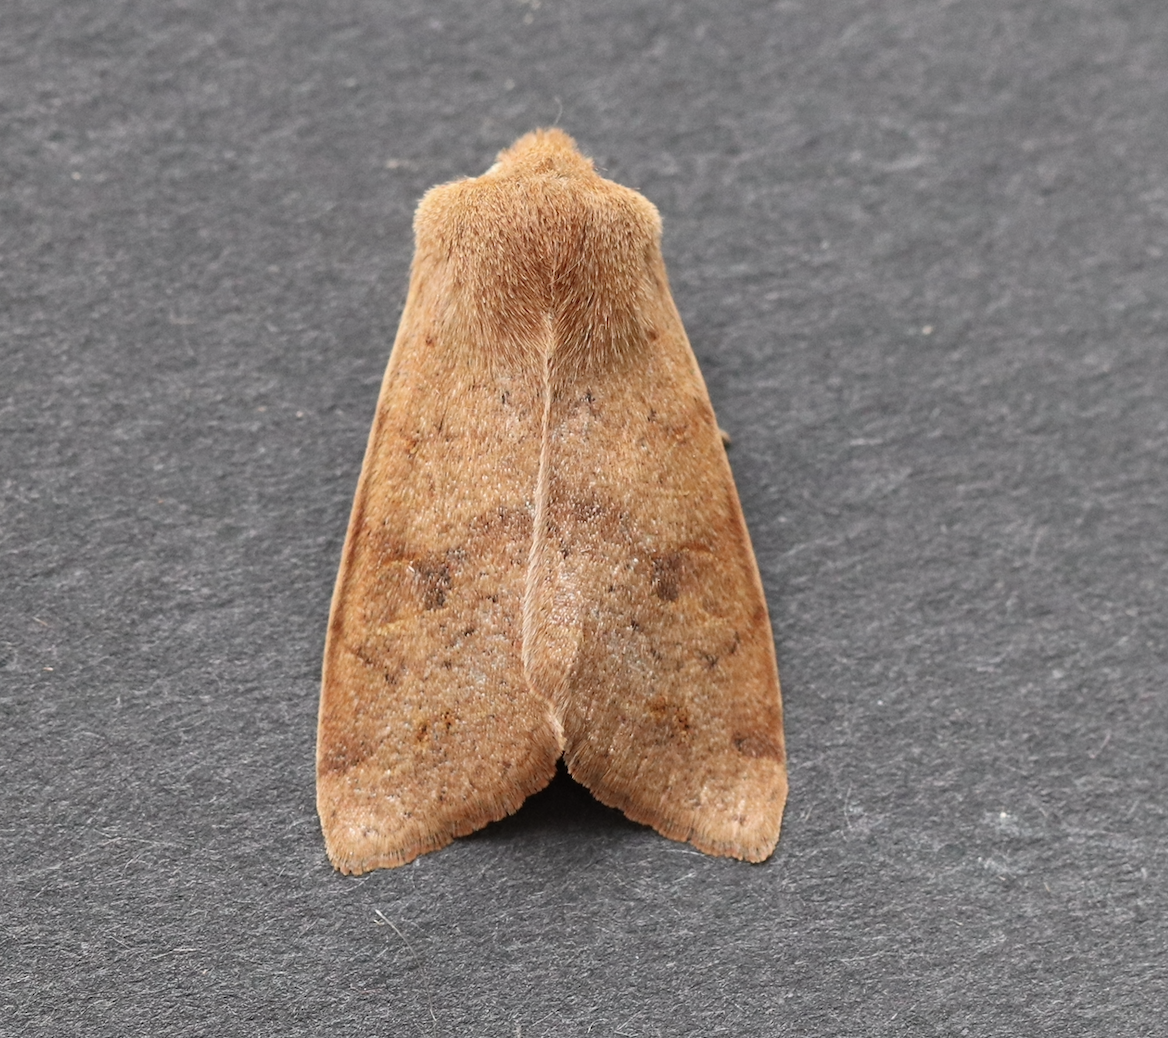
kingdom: Animalia
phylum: Arthropoda
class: Insecta
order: Lepidoptera
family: Noctuidae
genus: Anorthoa
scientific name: Anorthoa munda
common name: Twin-spotted quaker
